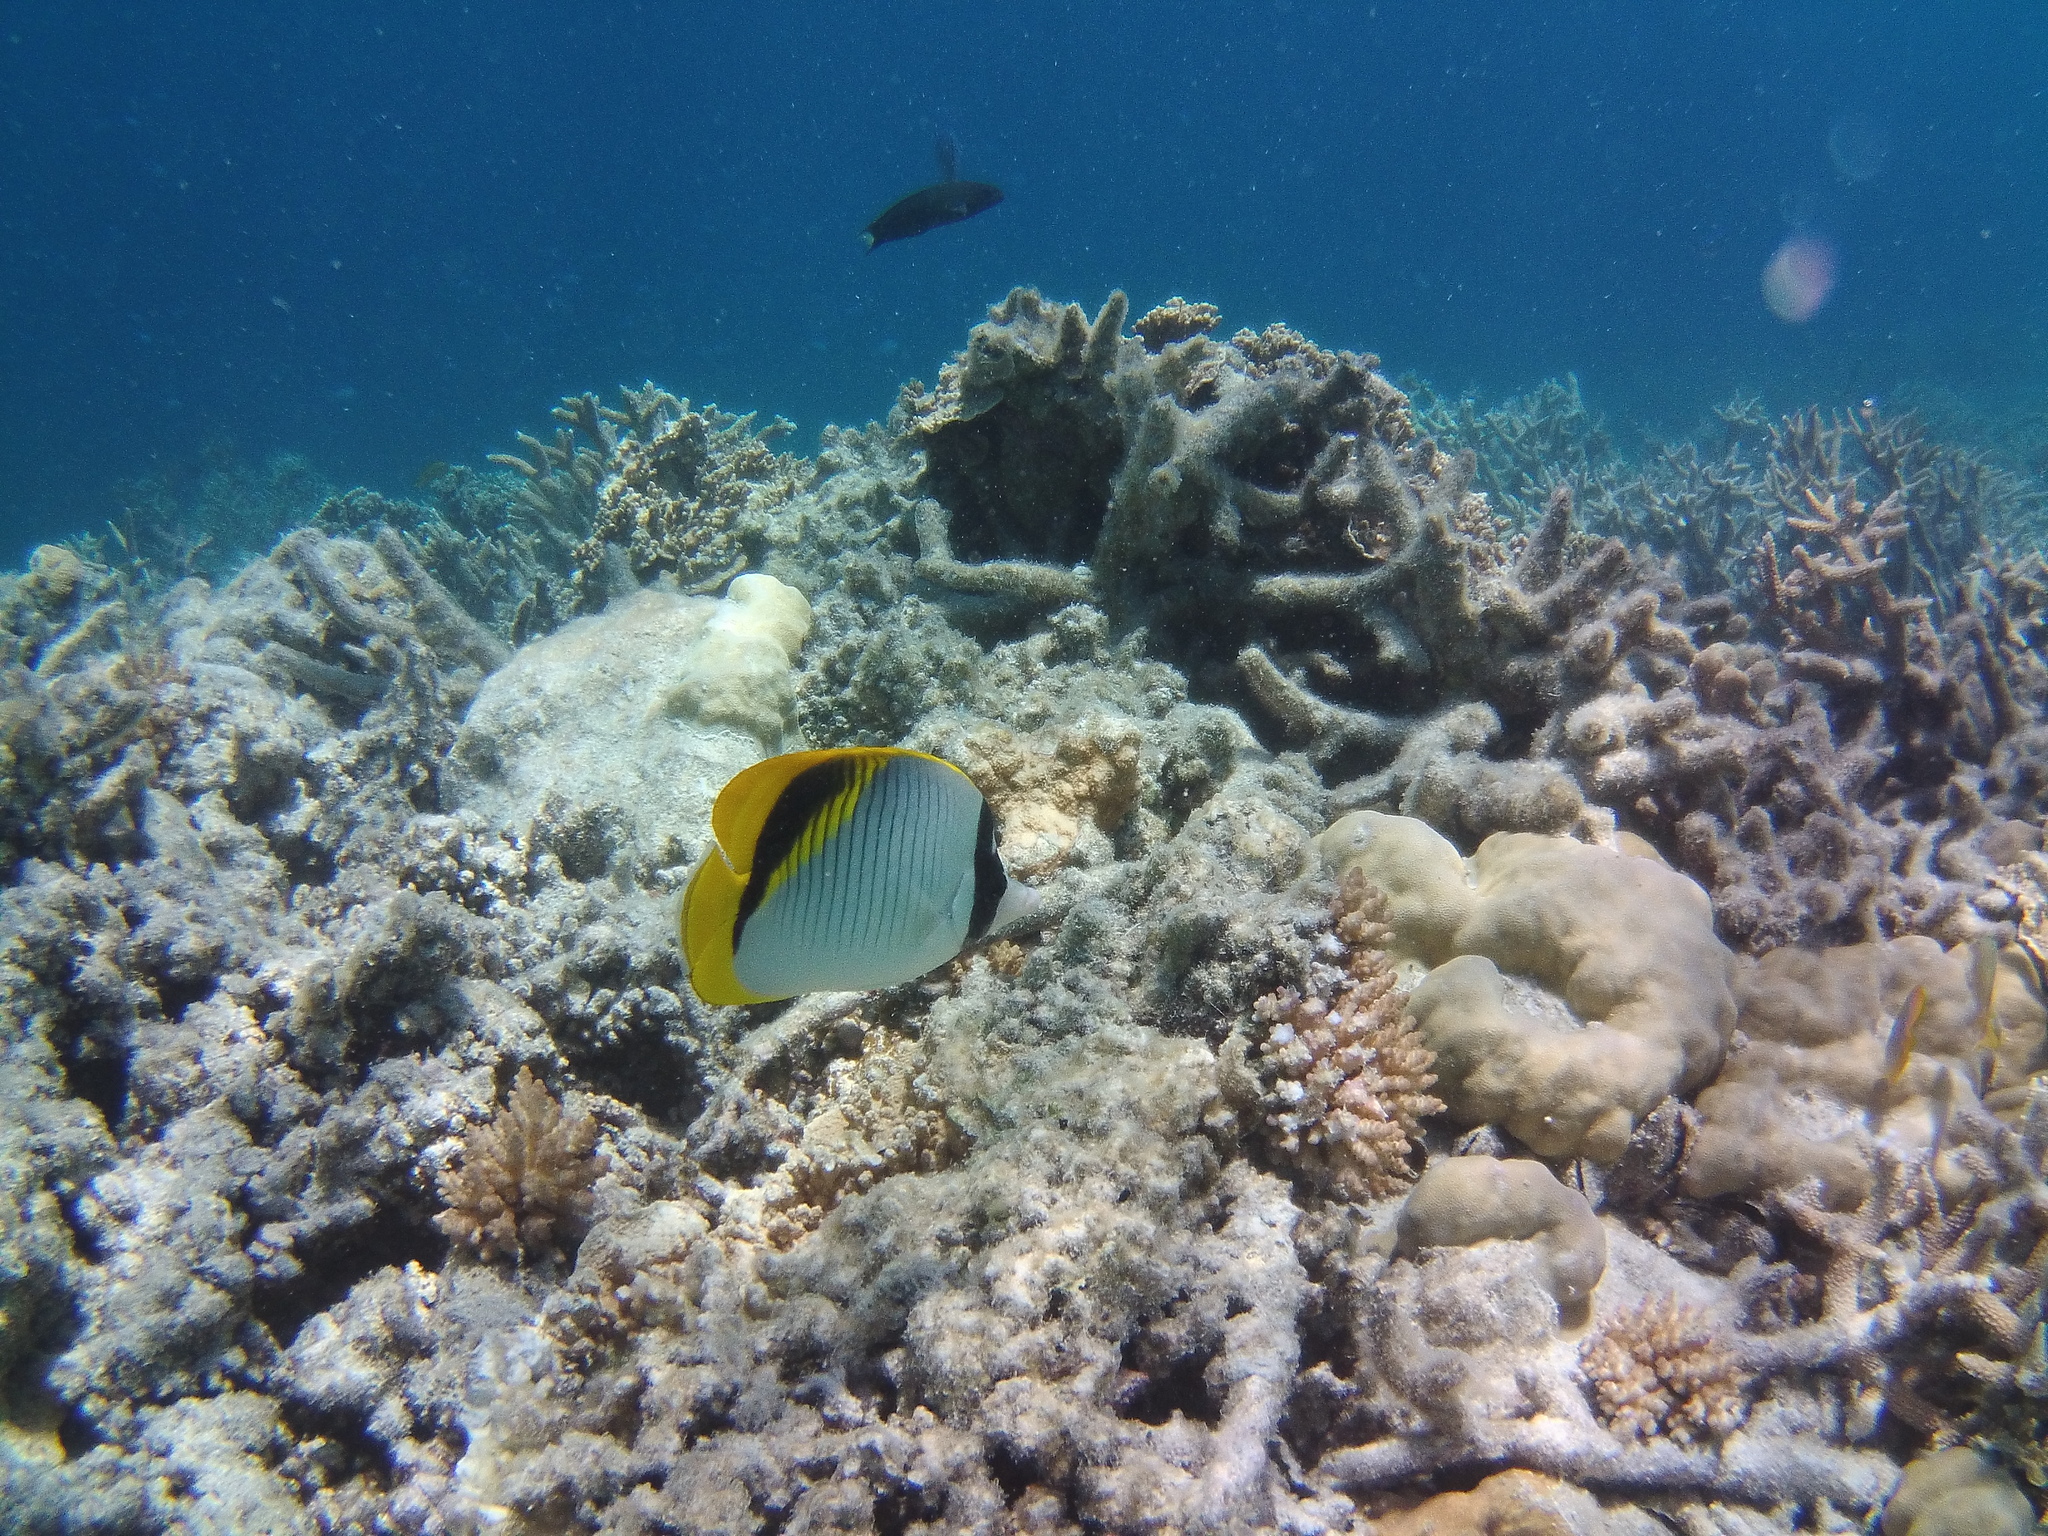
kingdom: Animalia
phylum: Chordata
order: Perciformes
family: Chaetodontidae
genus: Chaetodon
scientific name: Chaetodon lineolatus
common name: Lined butterflyfish
